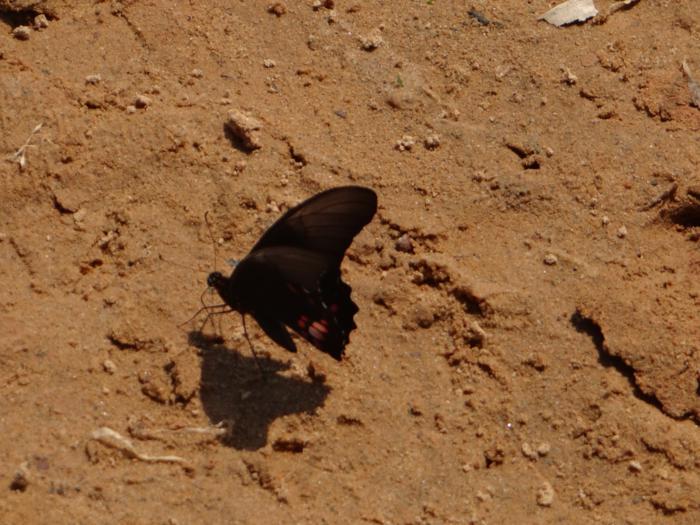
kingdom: Animalia
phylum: Arthropoda
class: Insecta
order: Lepidoptera
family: Papilionidae
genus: Papilio
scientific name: Papilio anchisiades
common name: Idaes swallowtail
